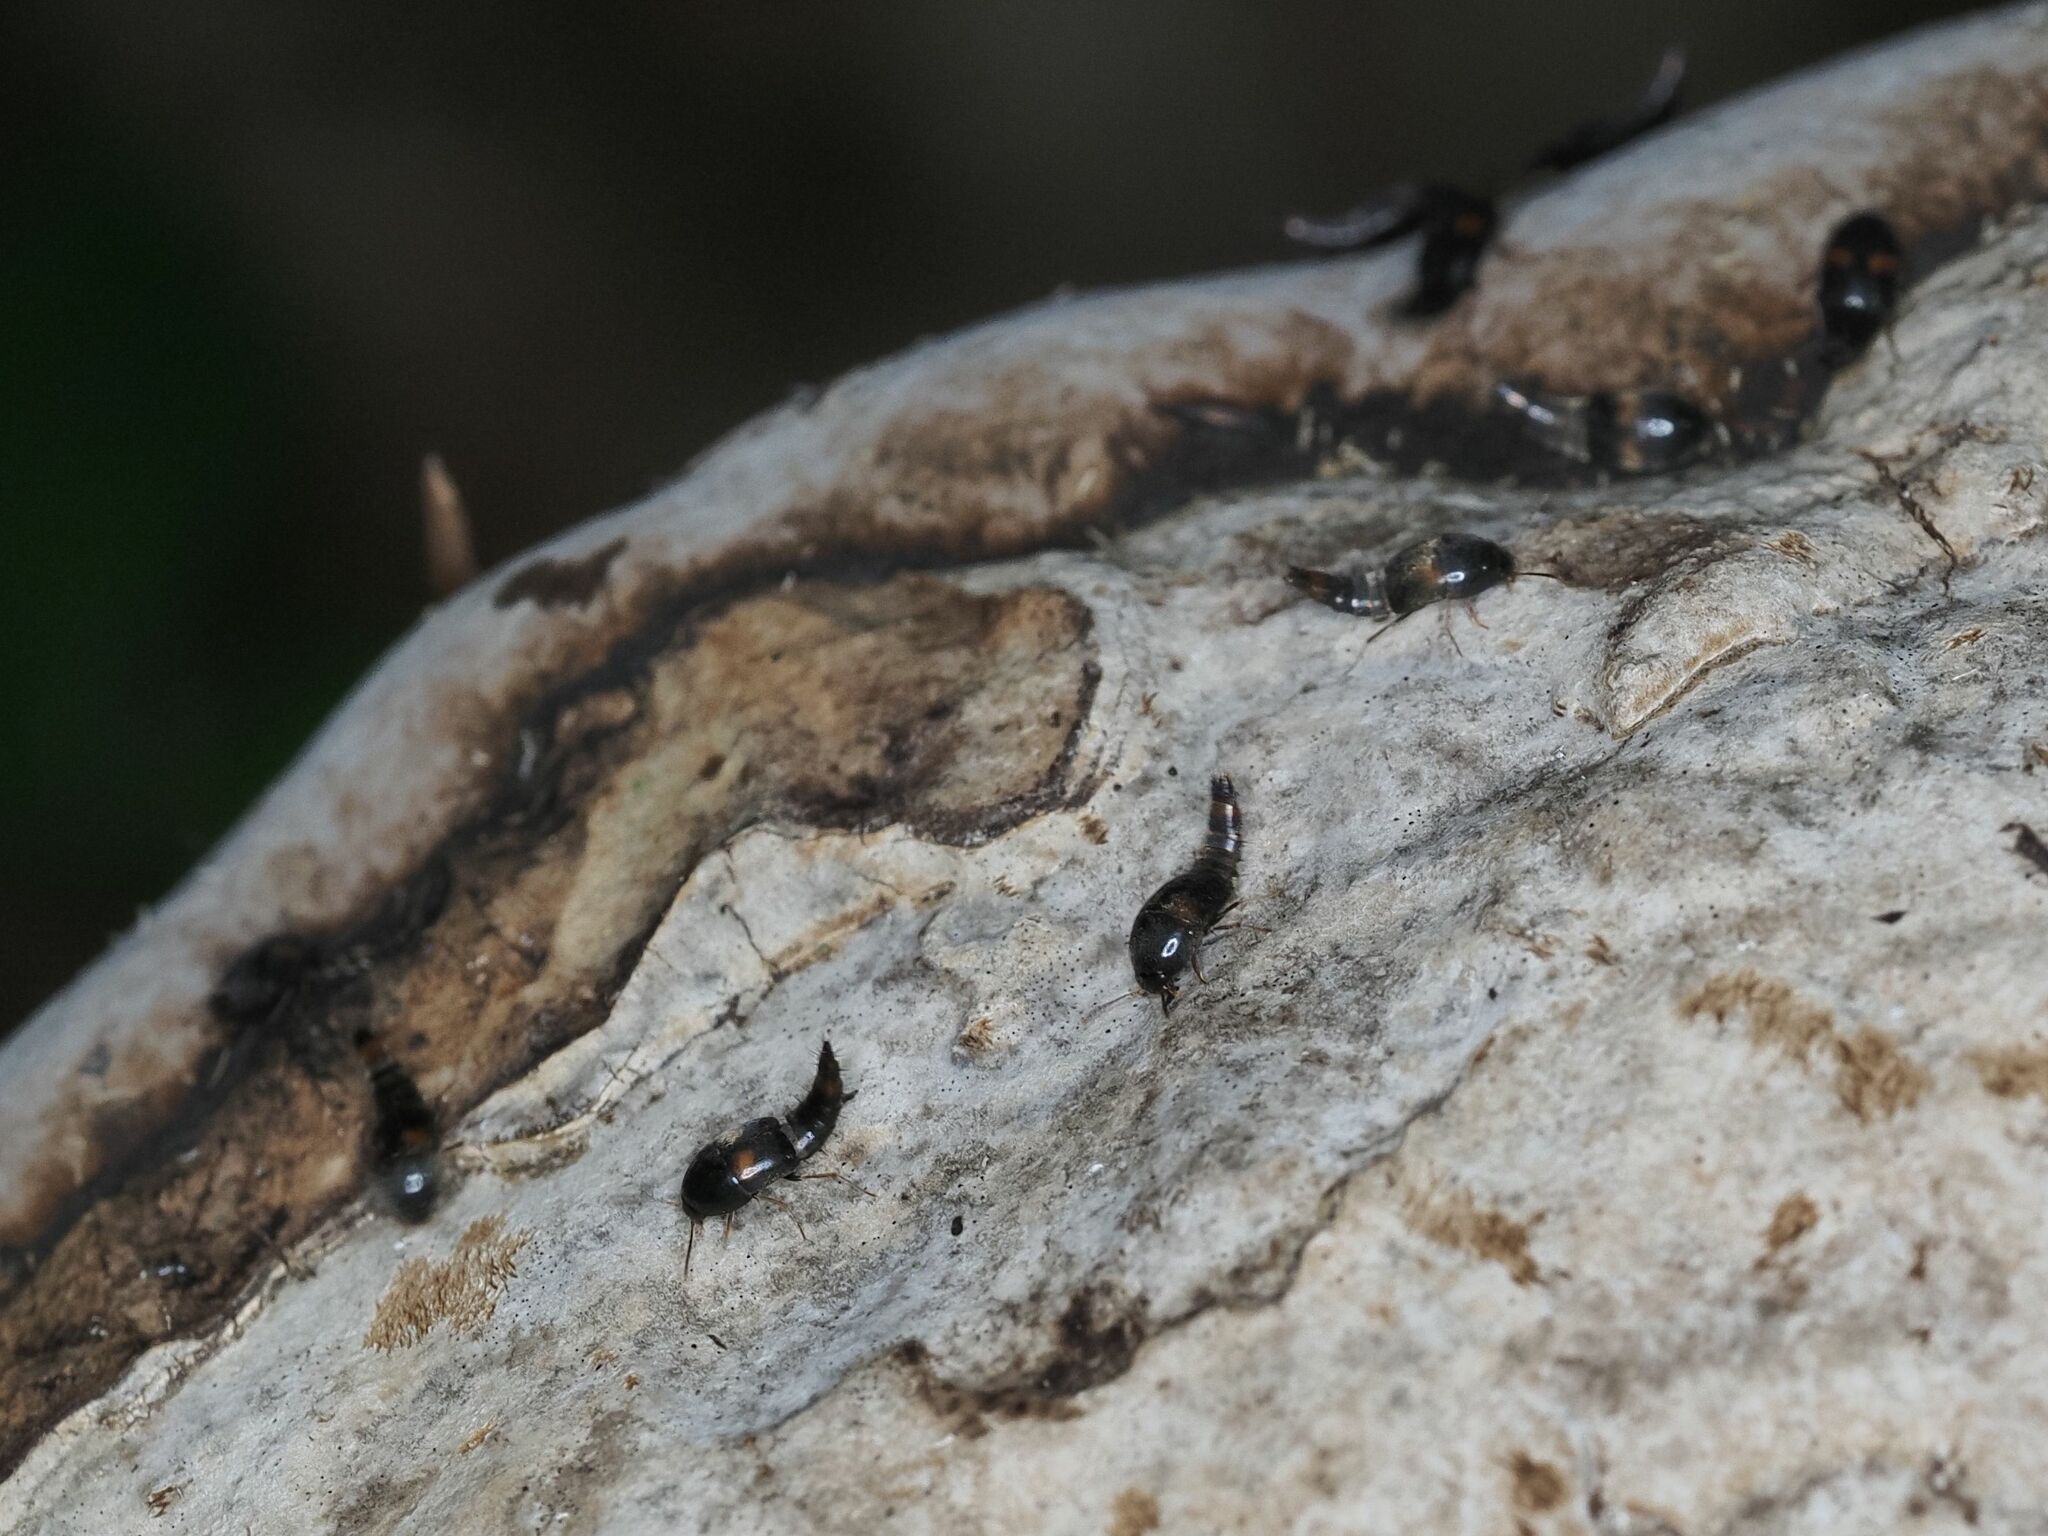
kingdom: Animalia
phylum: Arthropoda
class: Insecta
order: Coleoptera
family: Staphylinidae
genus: Sepedophilus
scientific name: Sepedophilus bipustulatus
